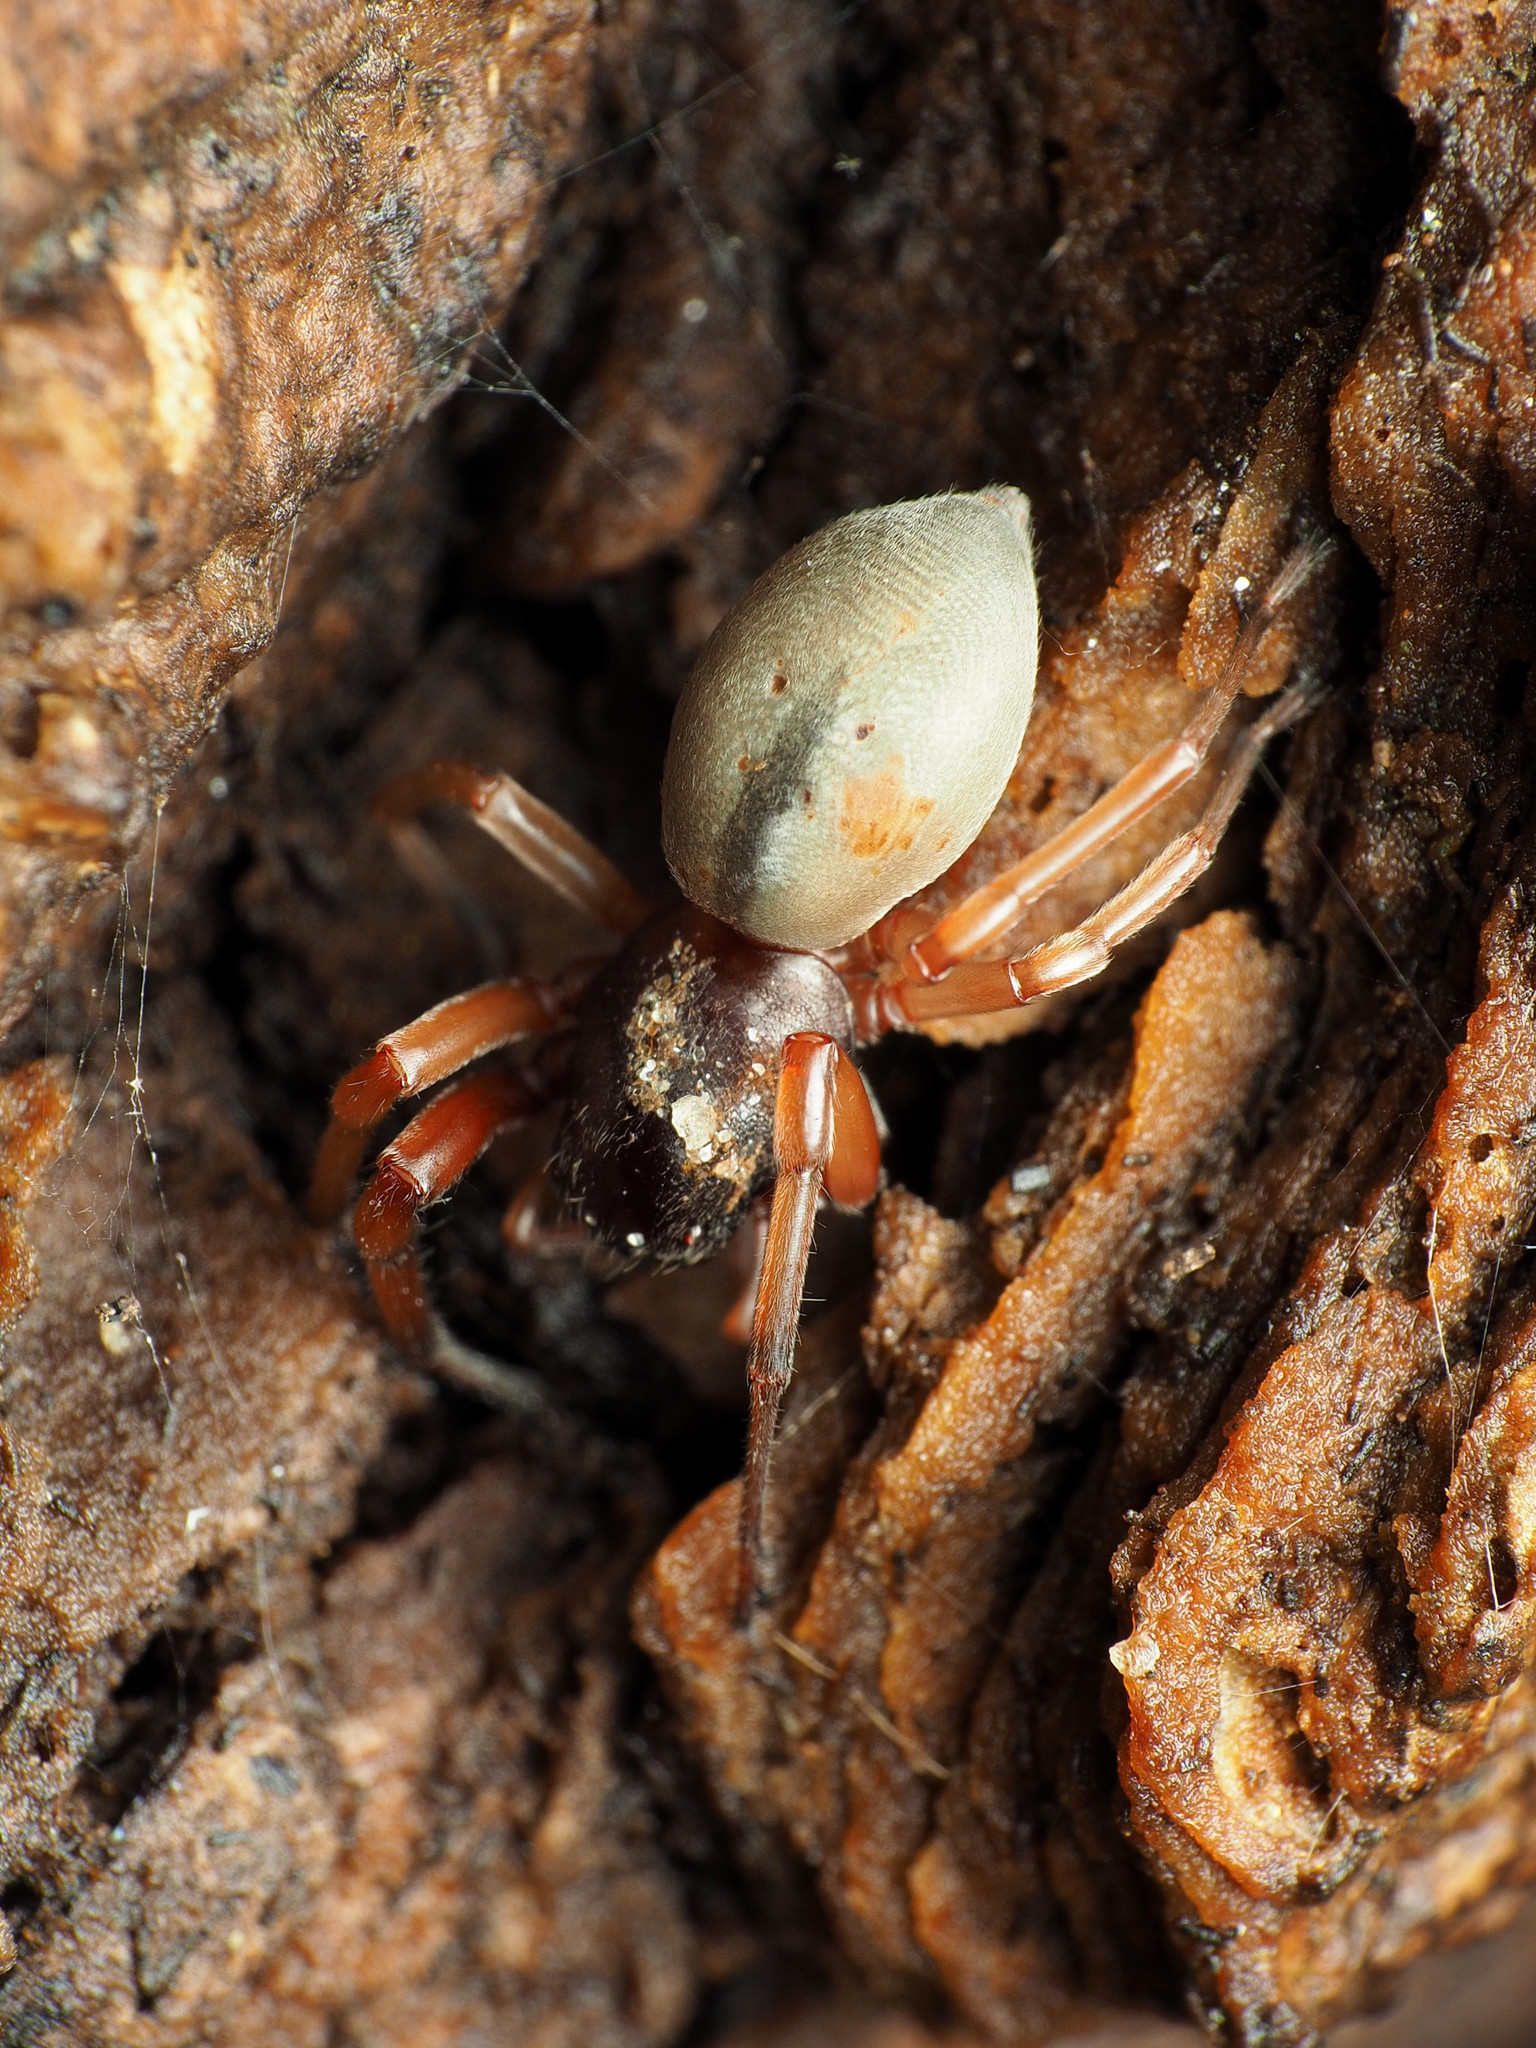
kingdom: Animalia
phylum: Arthropoda
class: Arachnida
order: Araneae
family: Trachelidae
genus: Trachelas
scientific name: Trachelas tranquillus
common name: Broad-faced sac spider
